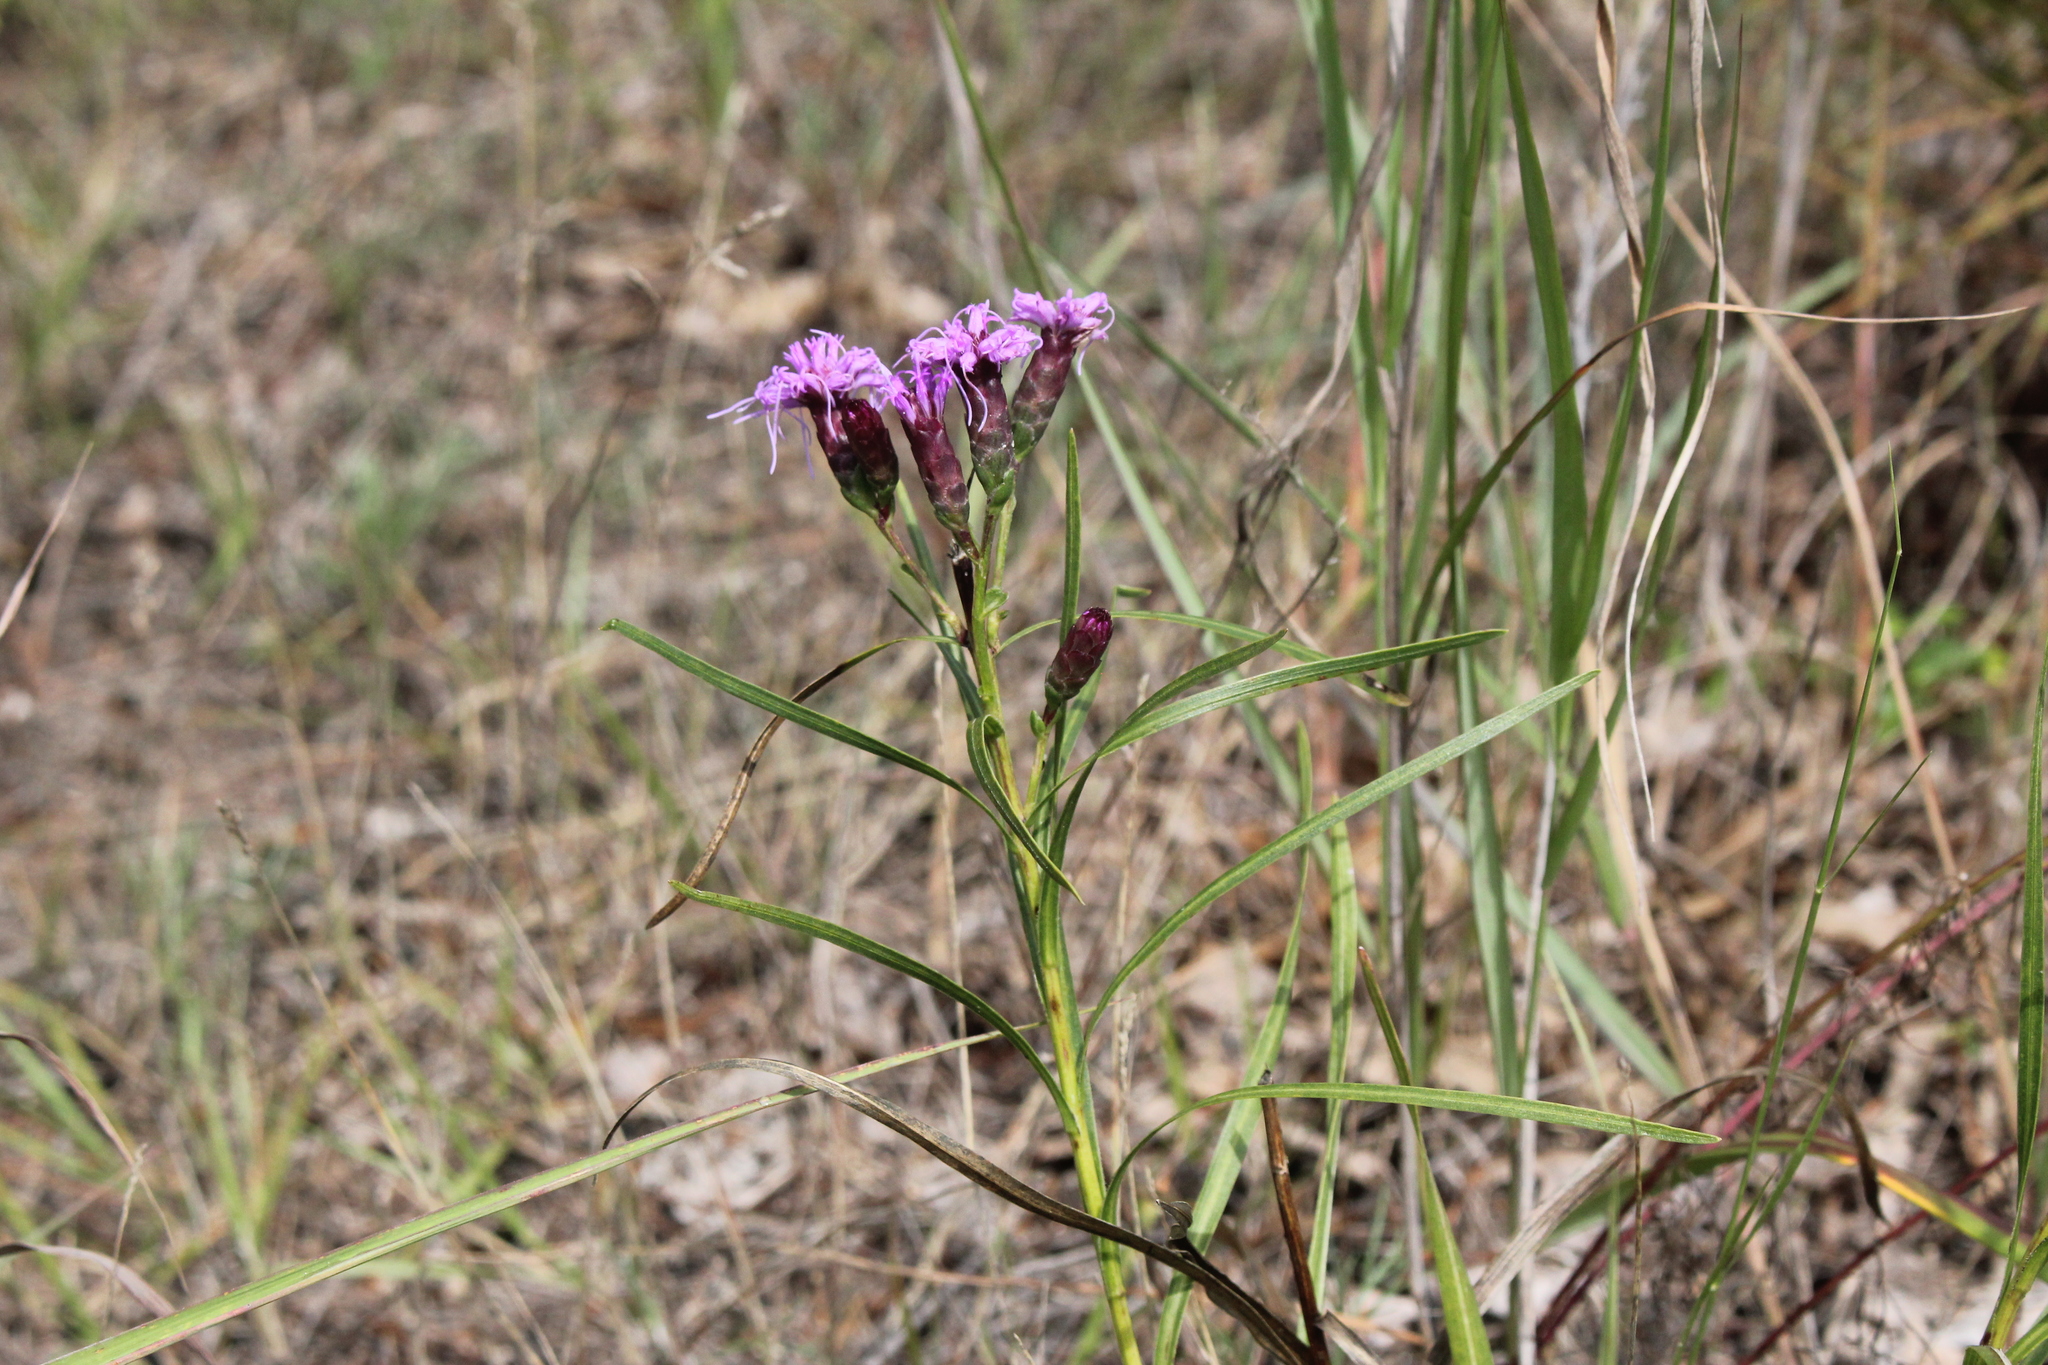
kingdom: Plantae
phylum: Tracheophyta
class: Magnoliopsida
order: Asterales
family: Asteraceae
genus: Liatris
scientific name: Liatris cylindracea
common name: Few-head blazingstar
